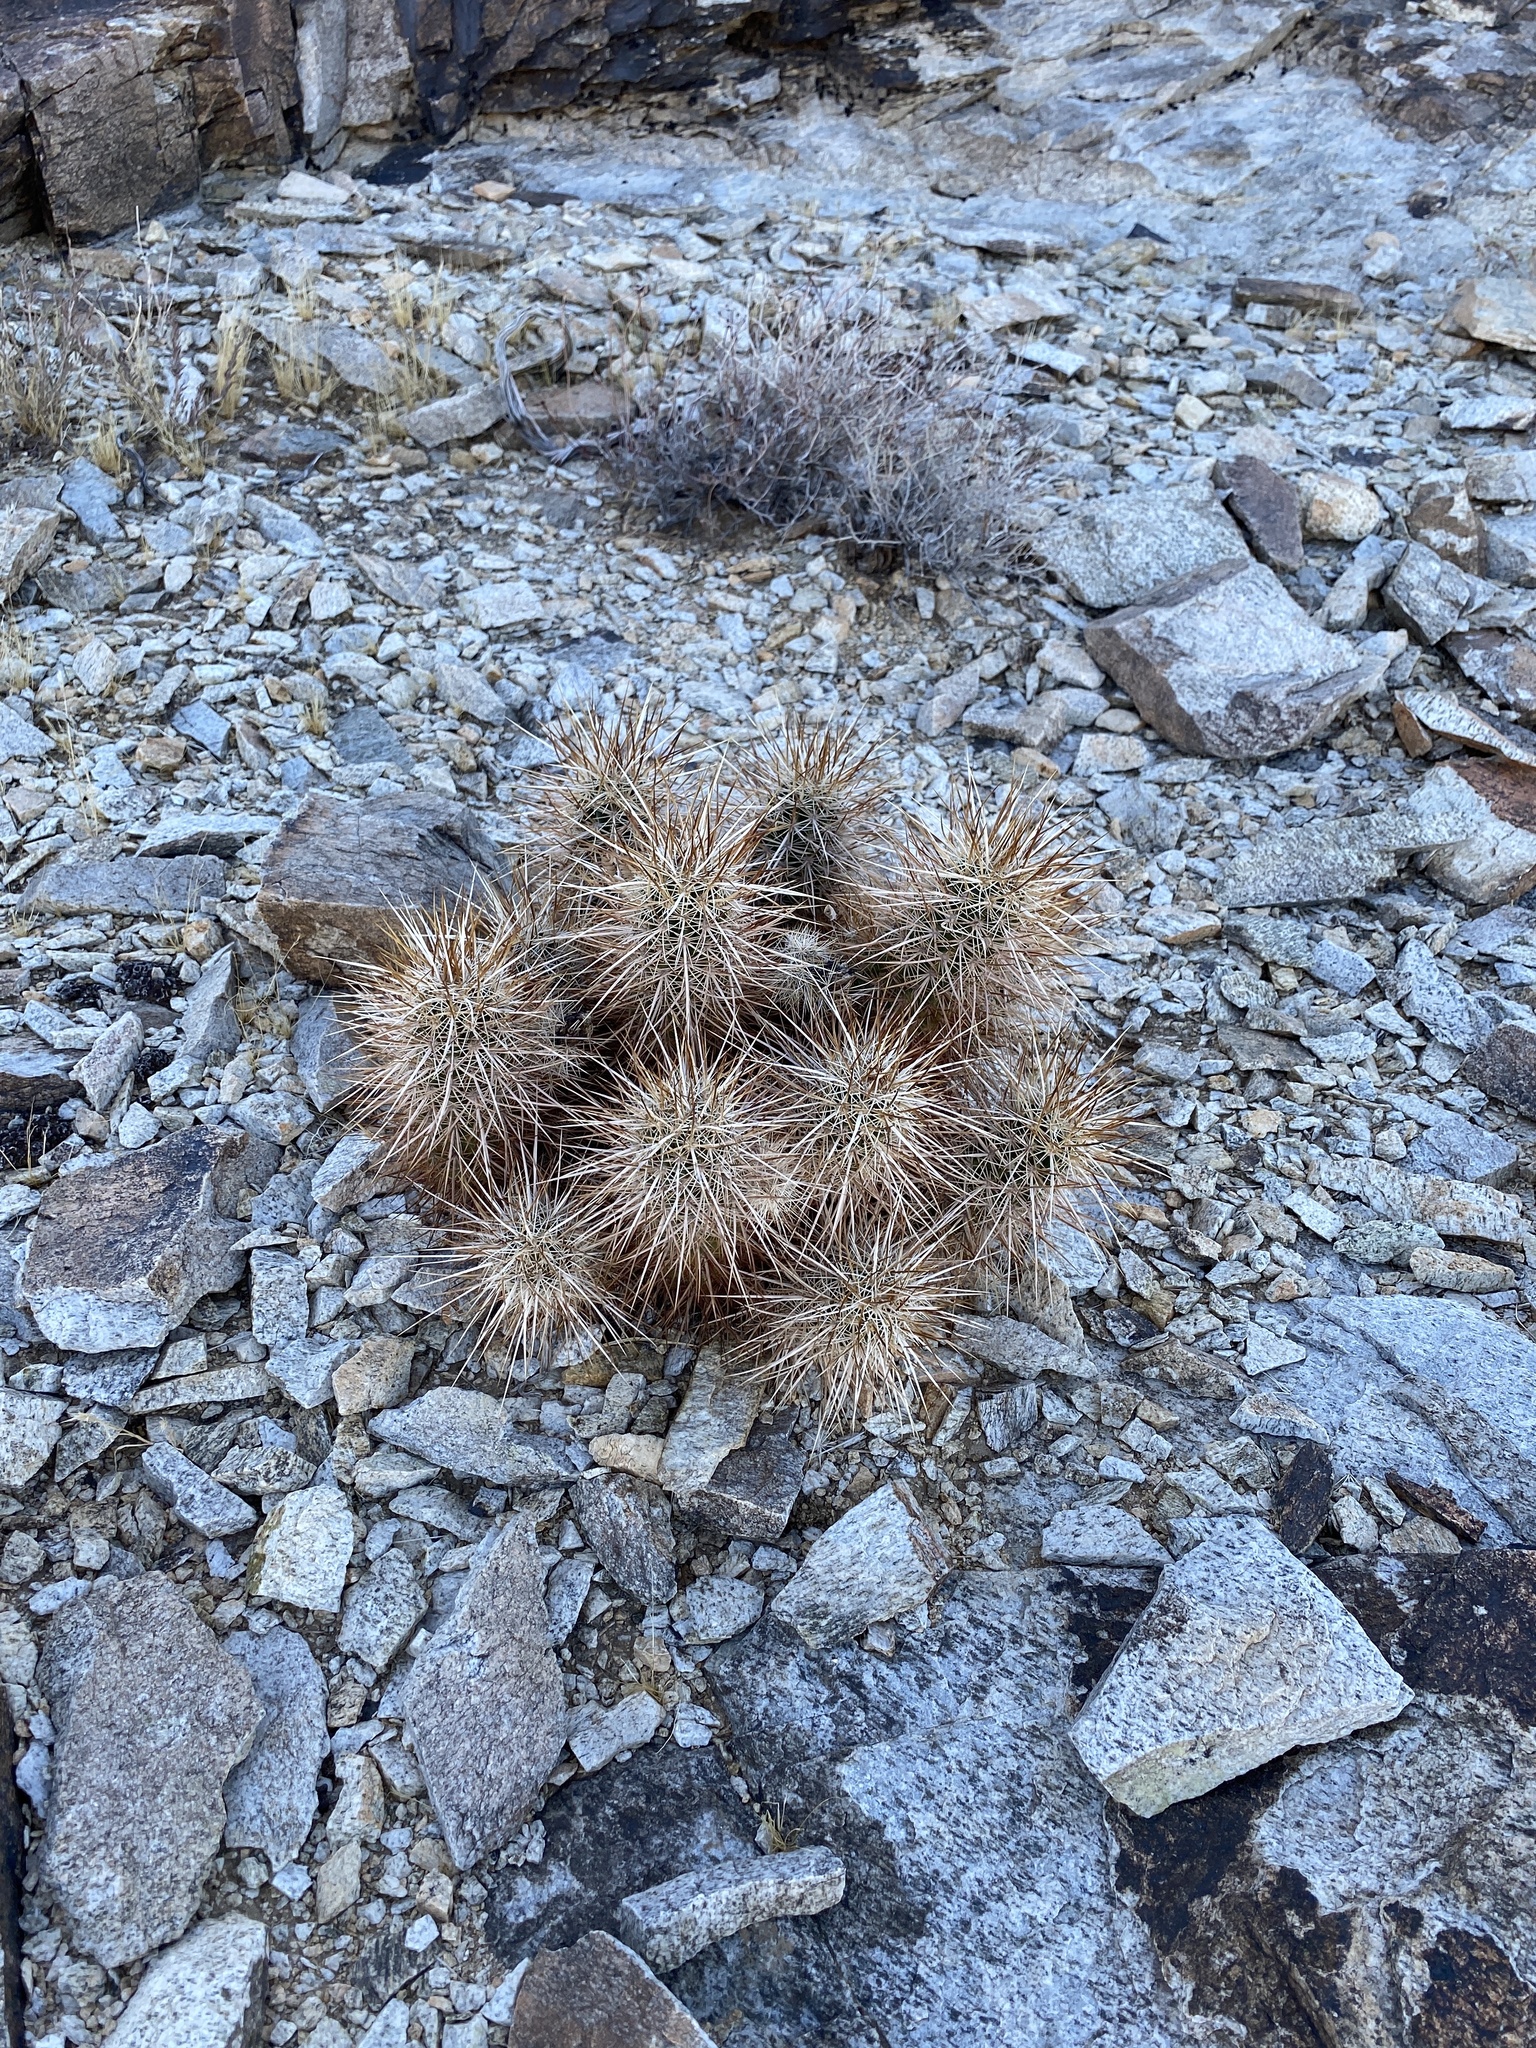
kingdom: Plantae
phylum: Tracheophyta
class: Magnoliopsida
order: Caryophyllales
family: Cactaceae
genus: Echinocereus
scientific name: Echinocereus engelmannii
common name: Engelmann's hedgehog cactus
